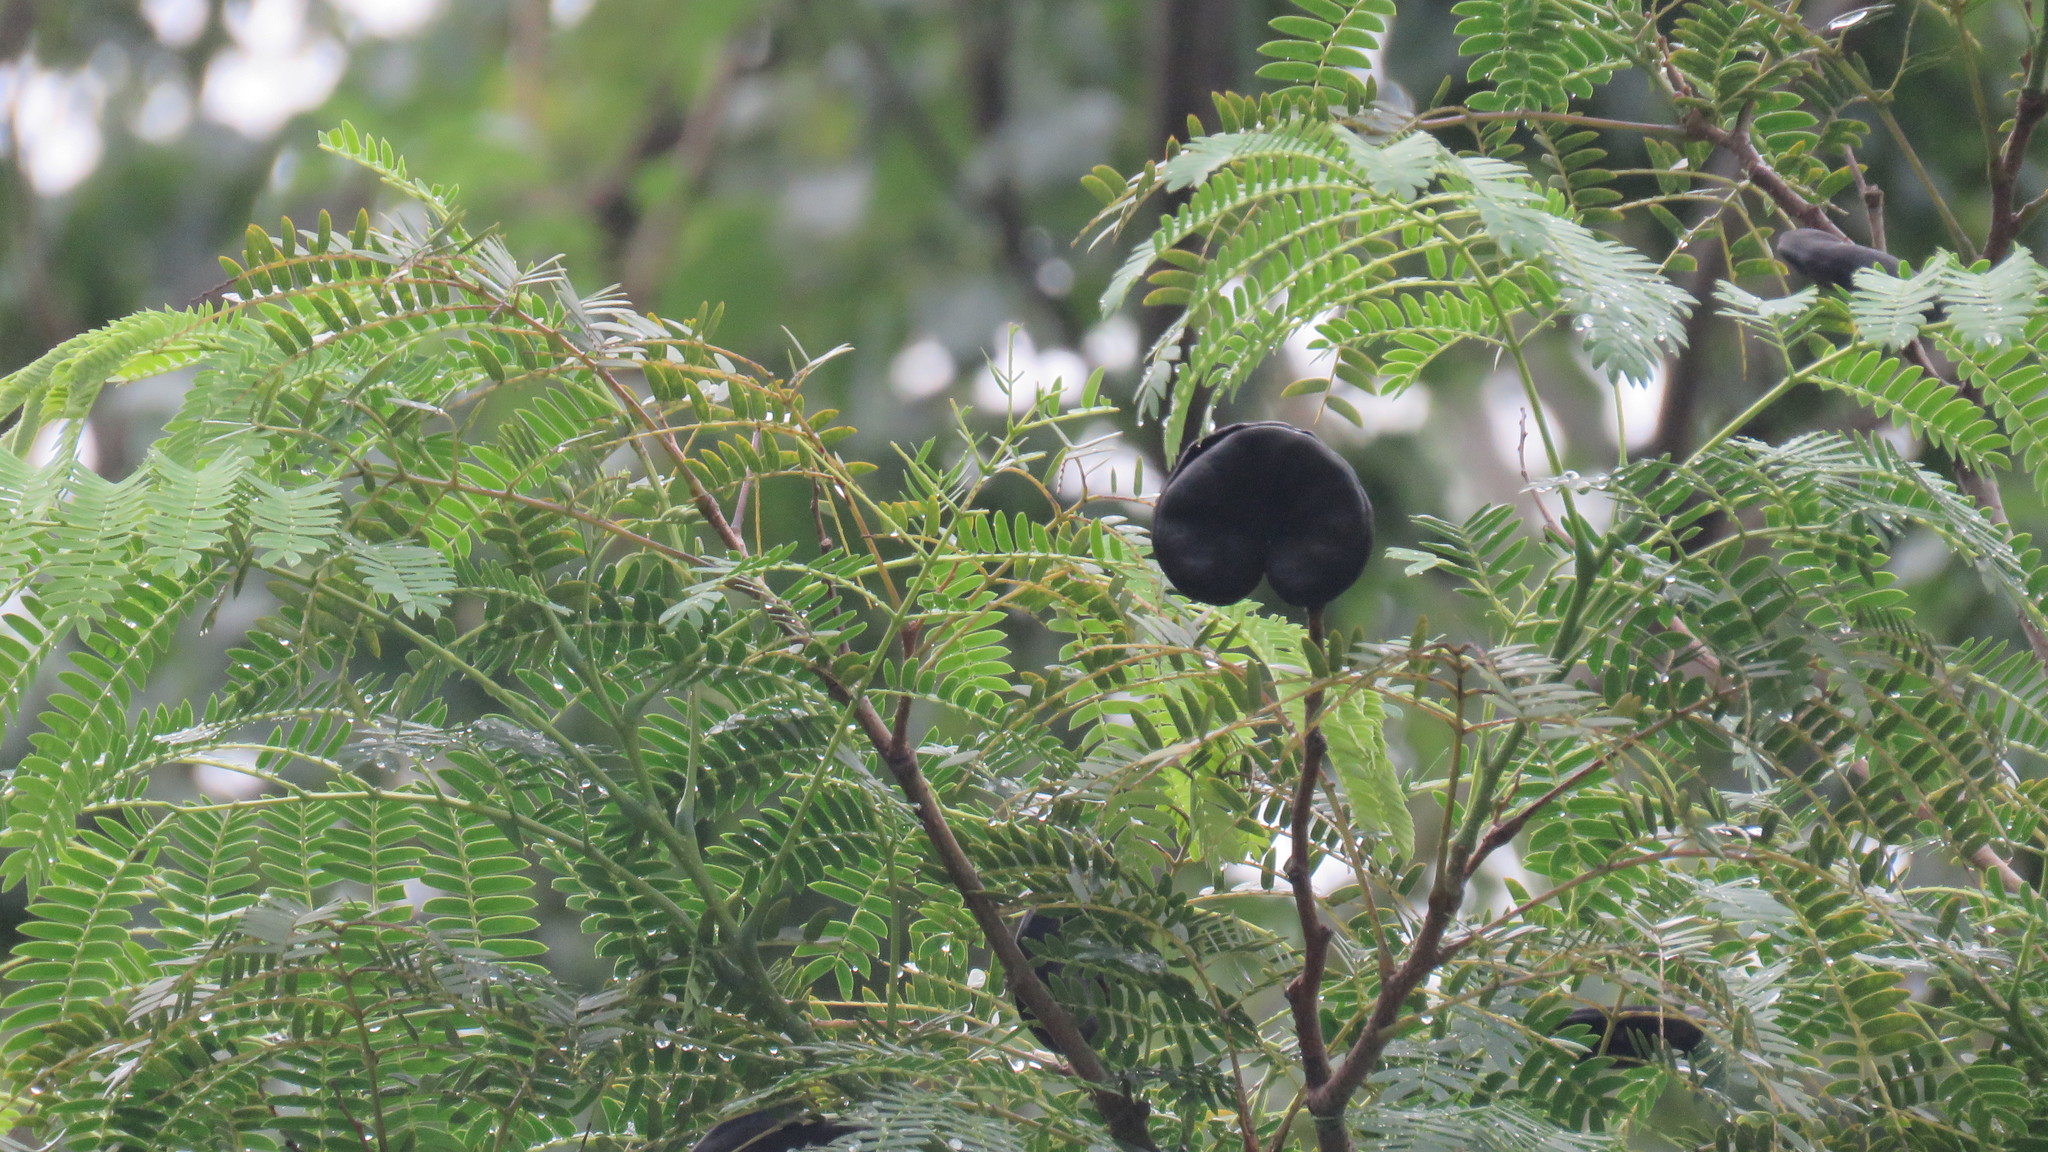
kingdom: Plantae
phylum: Tracheophyta
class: Magnoliopsida
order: Fabales
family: Fabaceae
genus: Enterolobium
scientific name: Enterolobium contortisiliquum
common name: Pacara earpod tree
